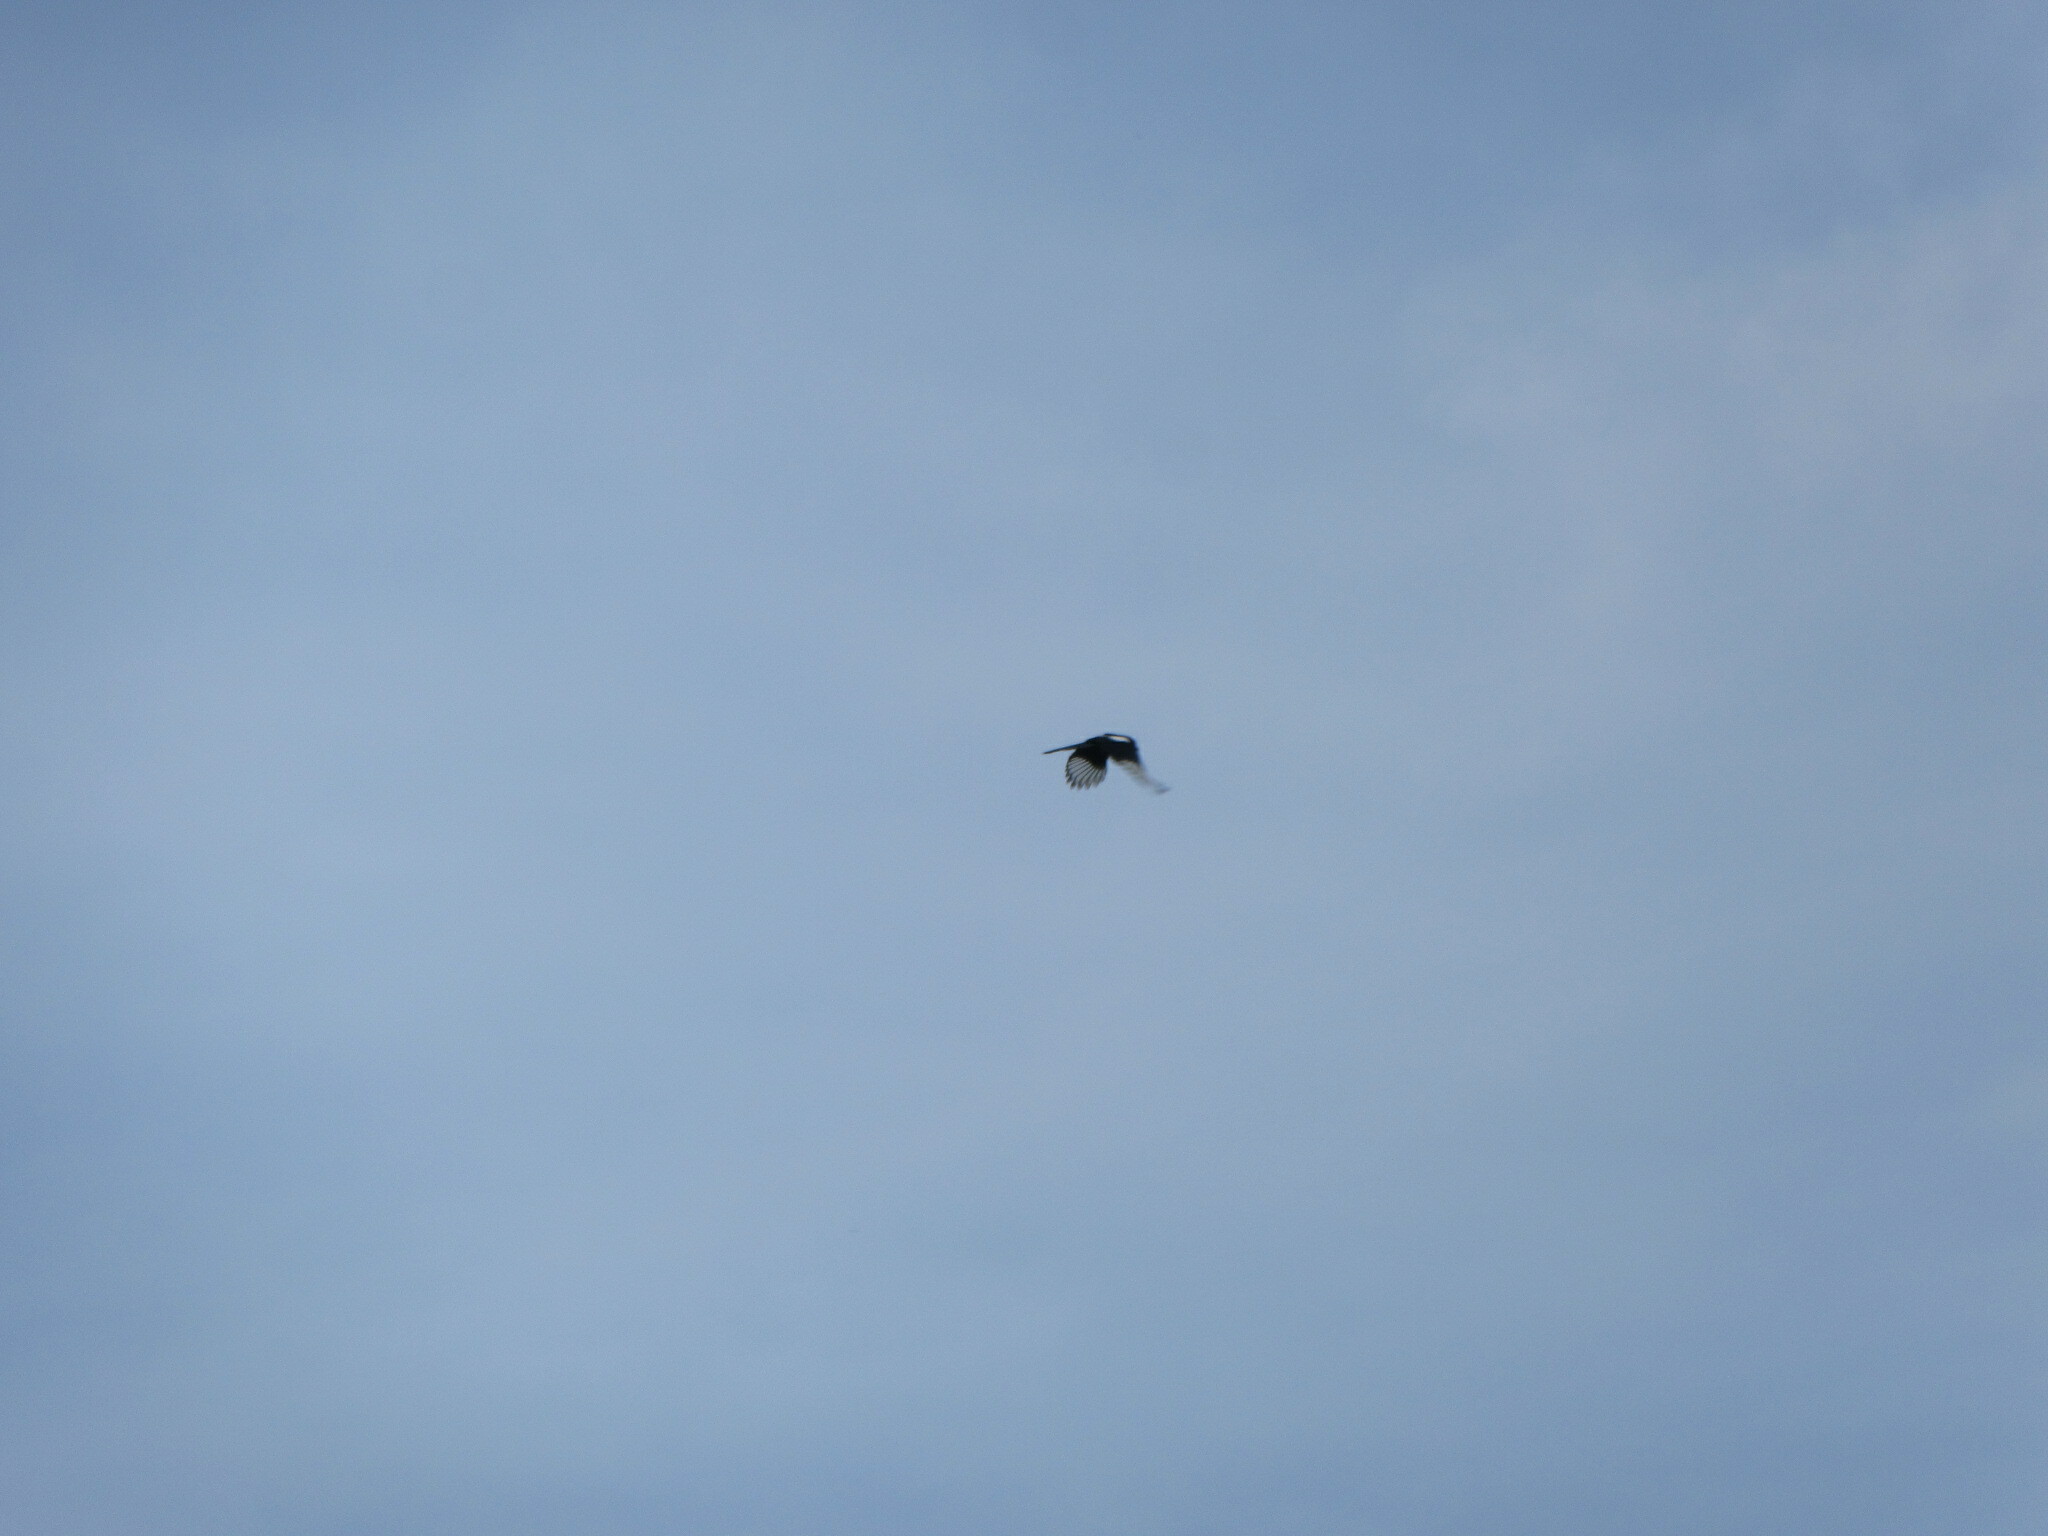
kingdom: Animalia
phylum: Chordata
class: Aves
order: Passeriformes
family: Corvidae
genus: Pica
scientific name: Pica pica
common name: Eurasian magpie
